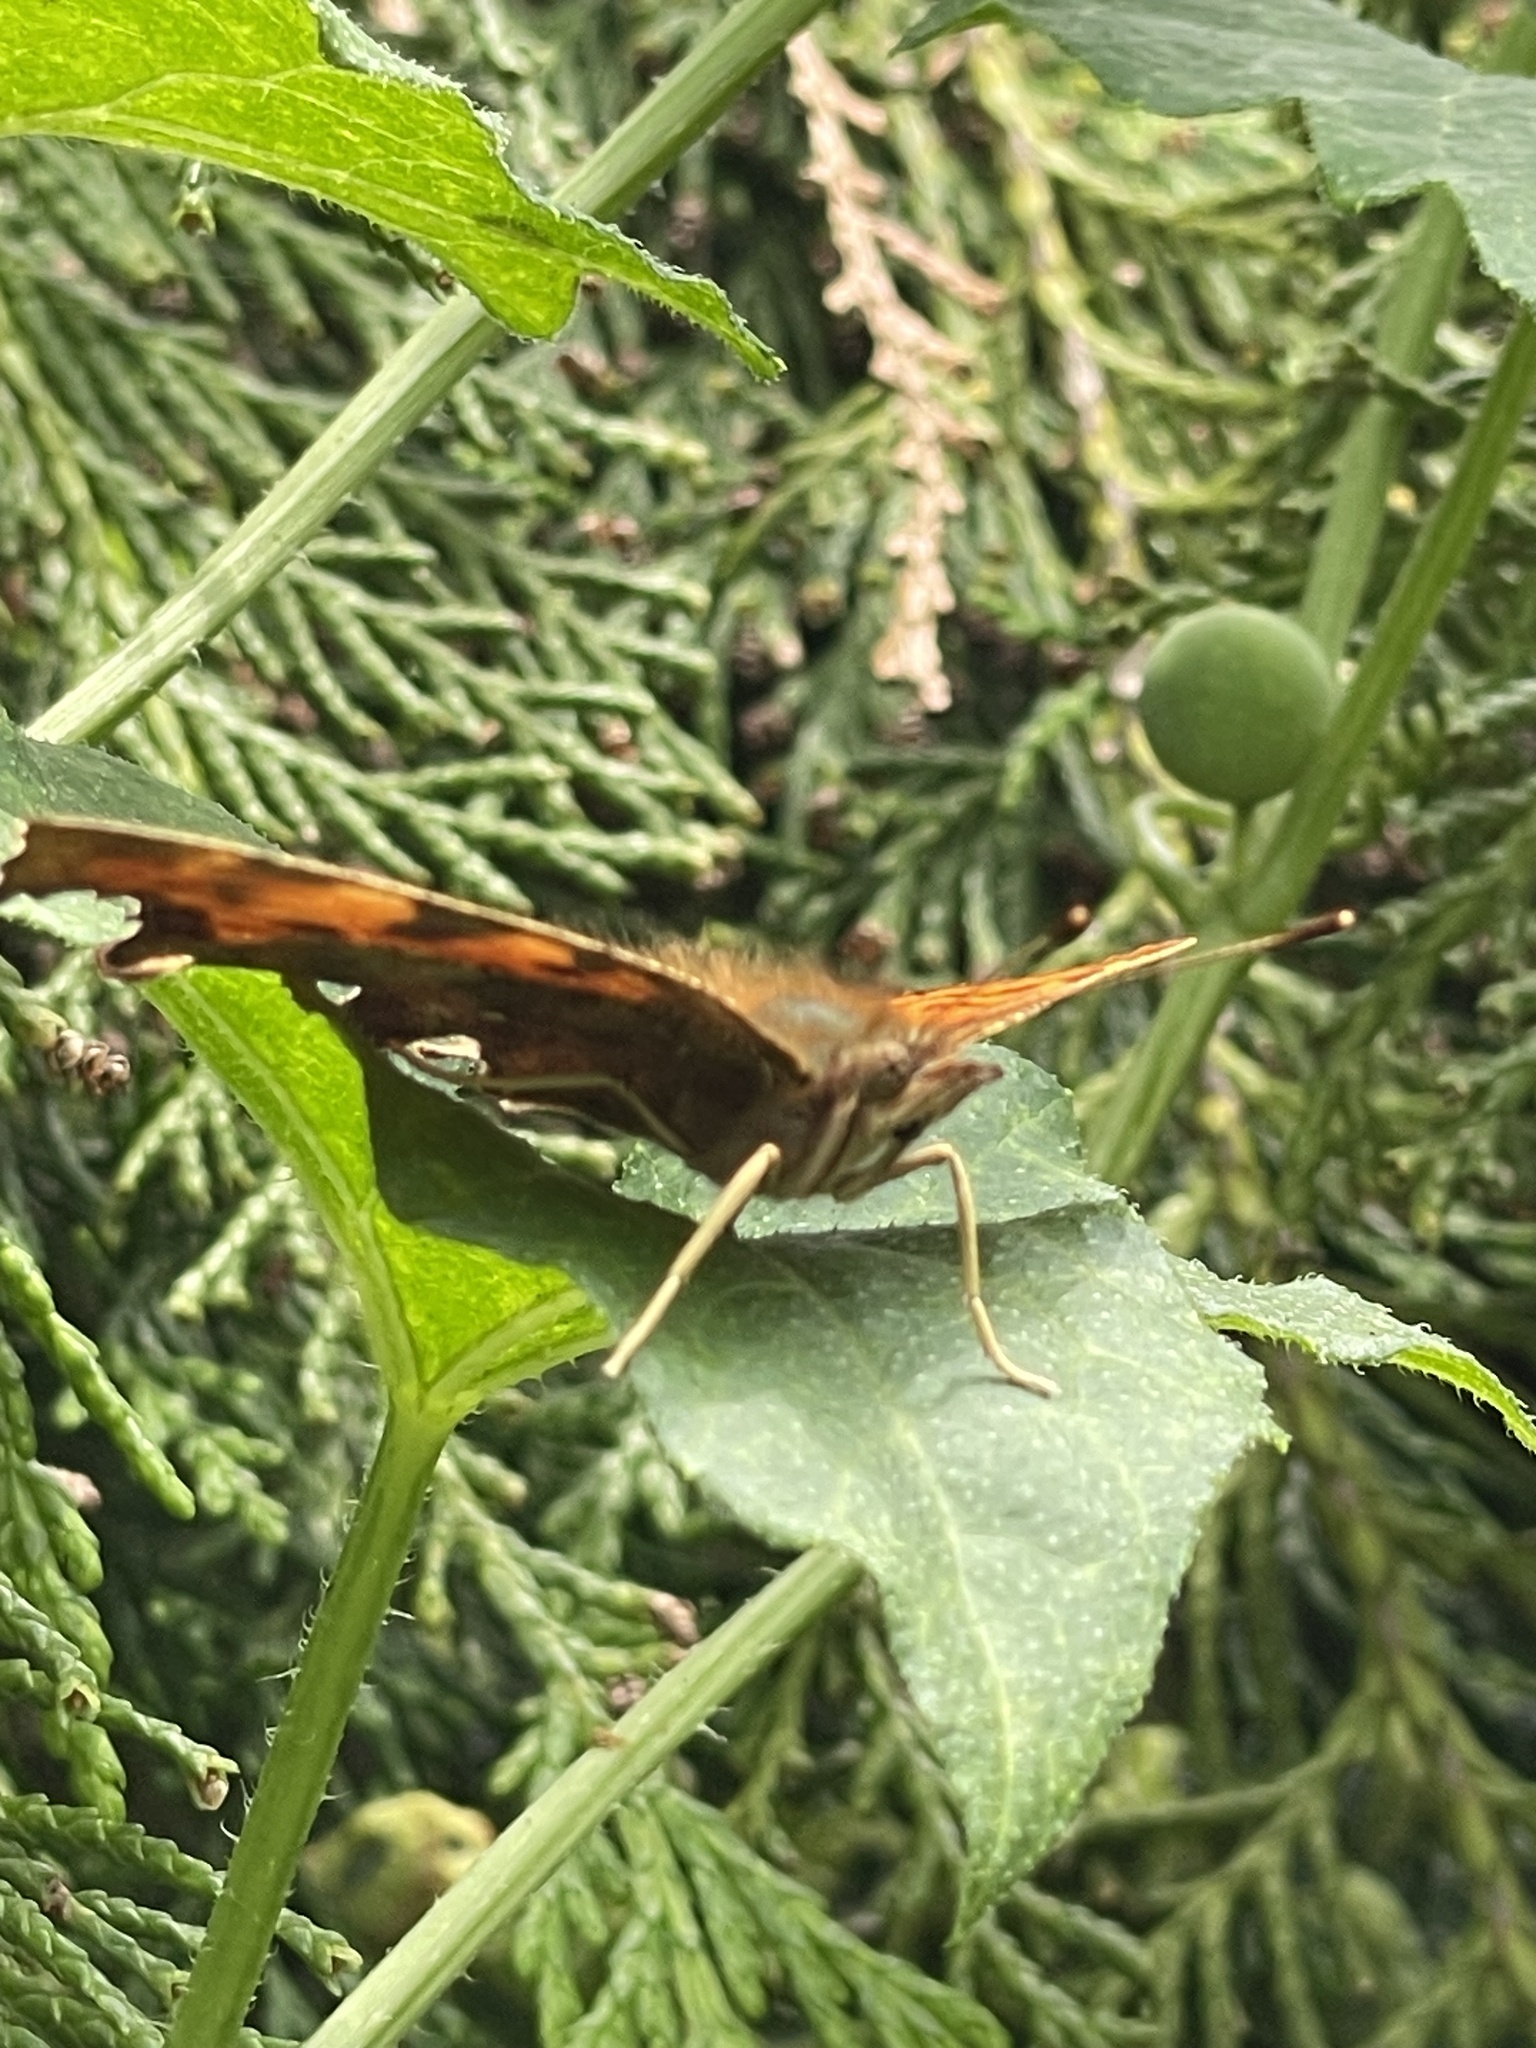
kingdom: Animalia
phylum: Arthropoda
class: Insecta
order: Lepidoptera
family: Nymphalidae
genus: Polygonia
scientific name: Polygonia c-album
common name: Comma
